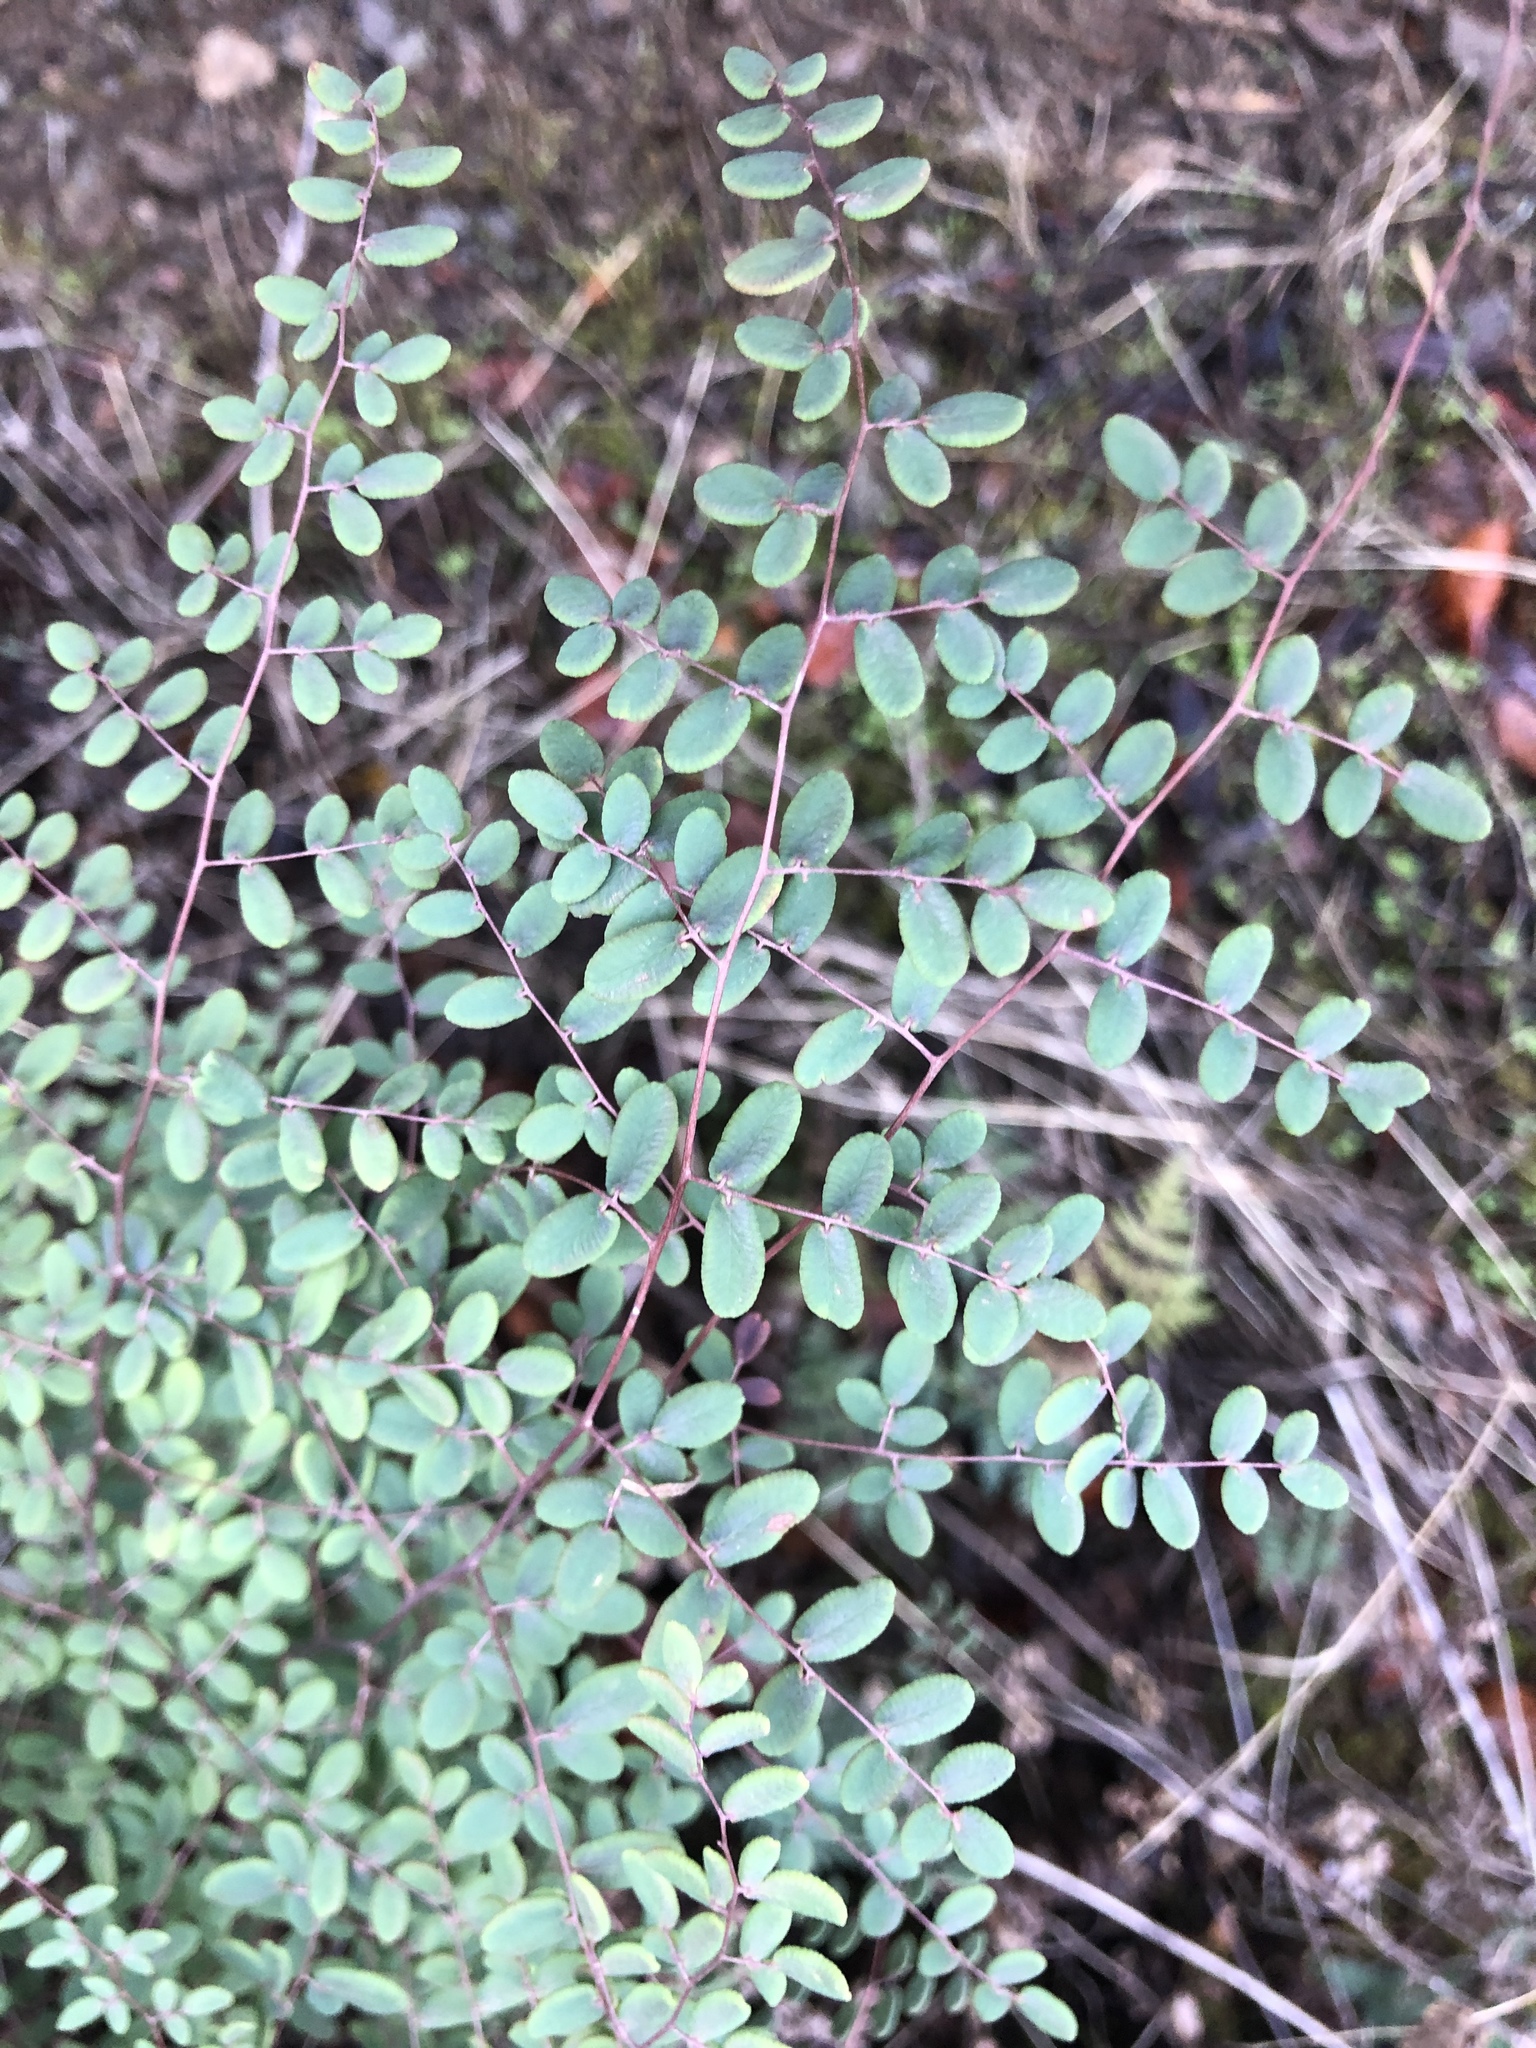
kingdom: Plantae
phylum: Tracheophyta
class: Polypodiopsida
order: Polypodiales
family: Pteridaceae
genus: Pellaea
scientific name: Pellaea andromedifolia
